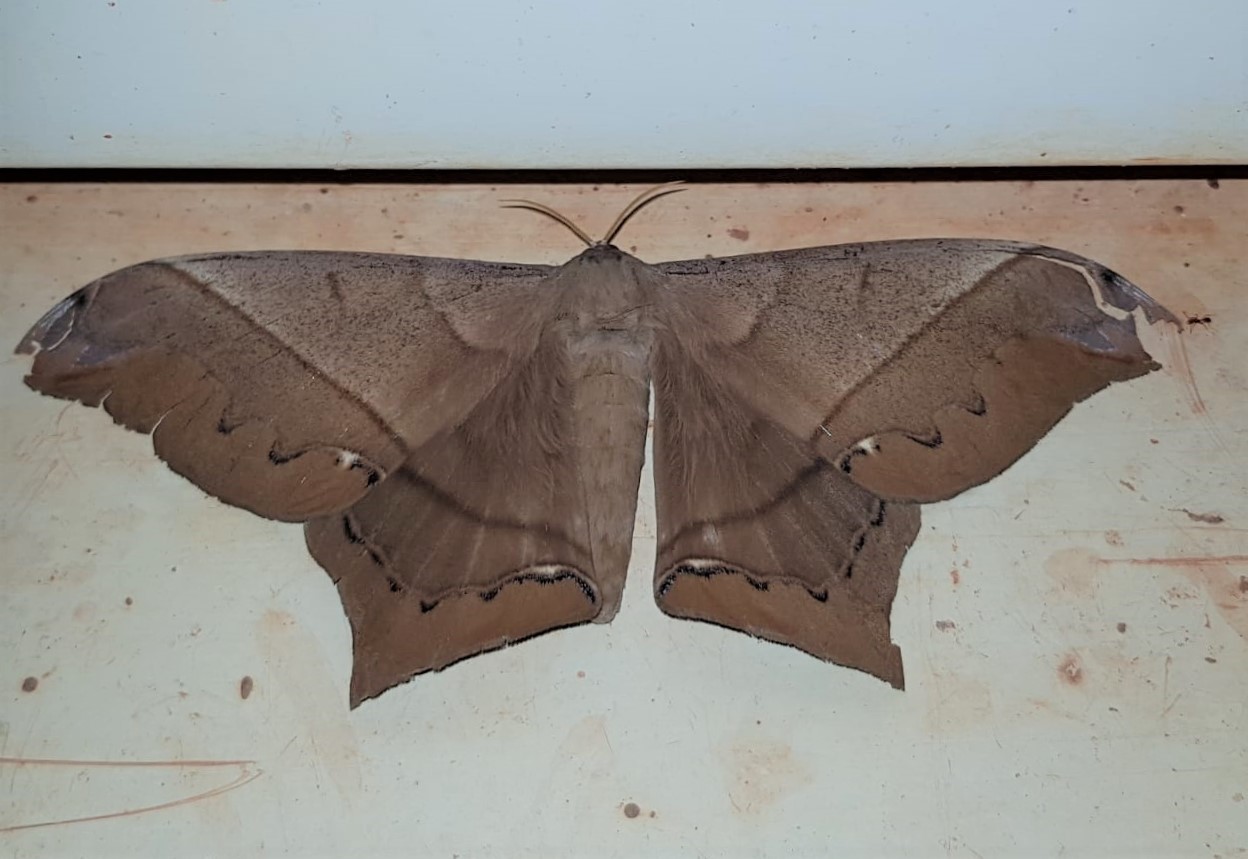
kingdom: Animalia
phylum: Arthropoda
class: Insecta
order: Lepidoptera
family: Saturniidae
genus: Arsenura
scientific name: Arsenura mossi
